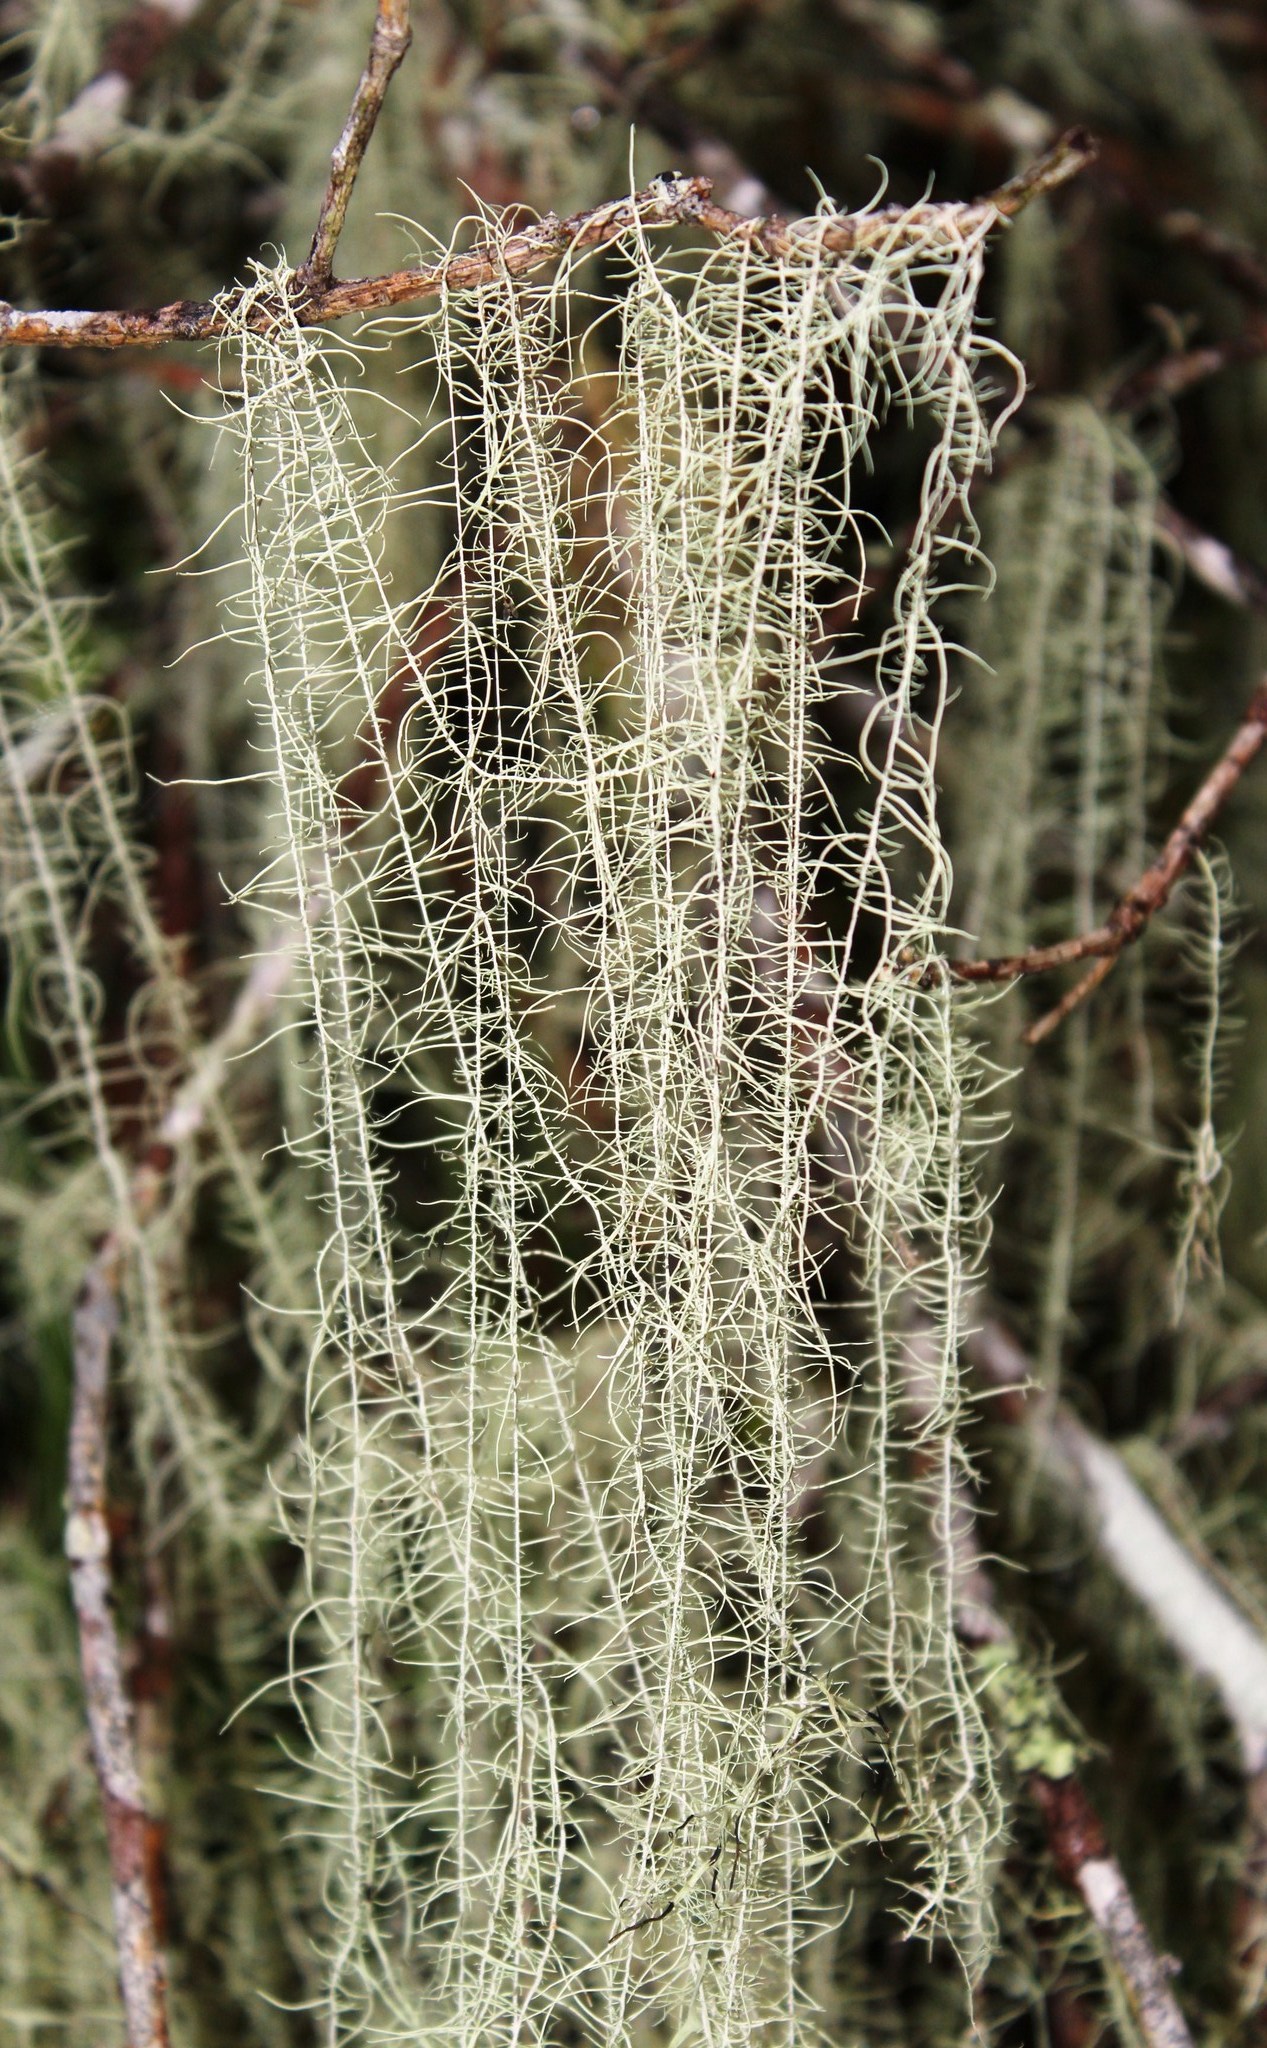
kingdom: Fungi
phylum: Ascomycota
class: Lecanoromycetes
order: Lecanorales
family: Parmeliaceae
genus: Dolichousnea
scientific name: Dolichousnea trichodeoides
